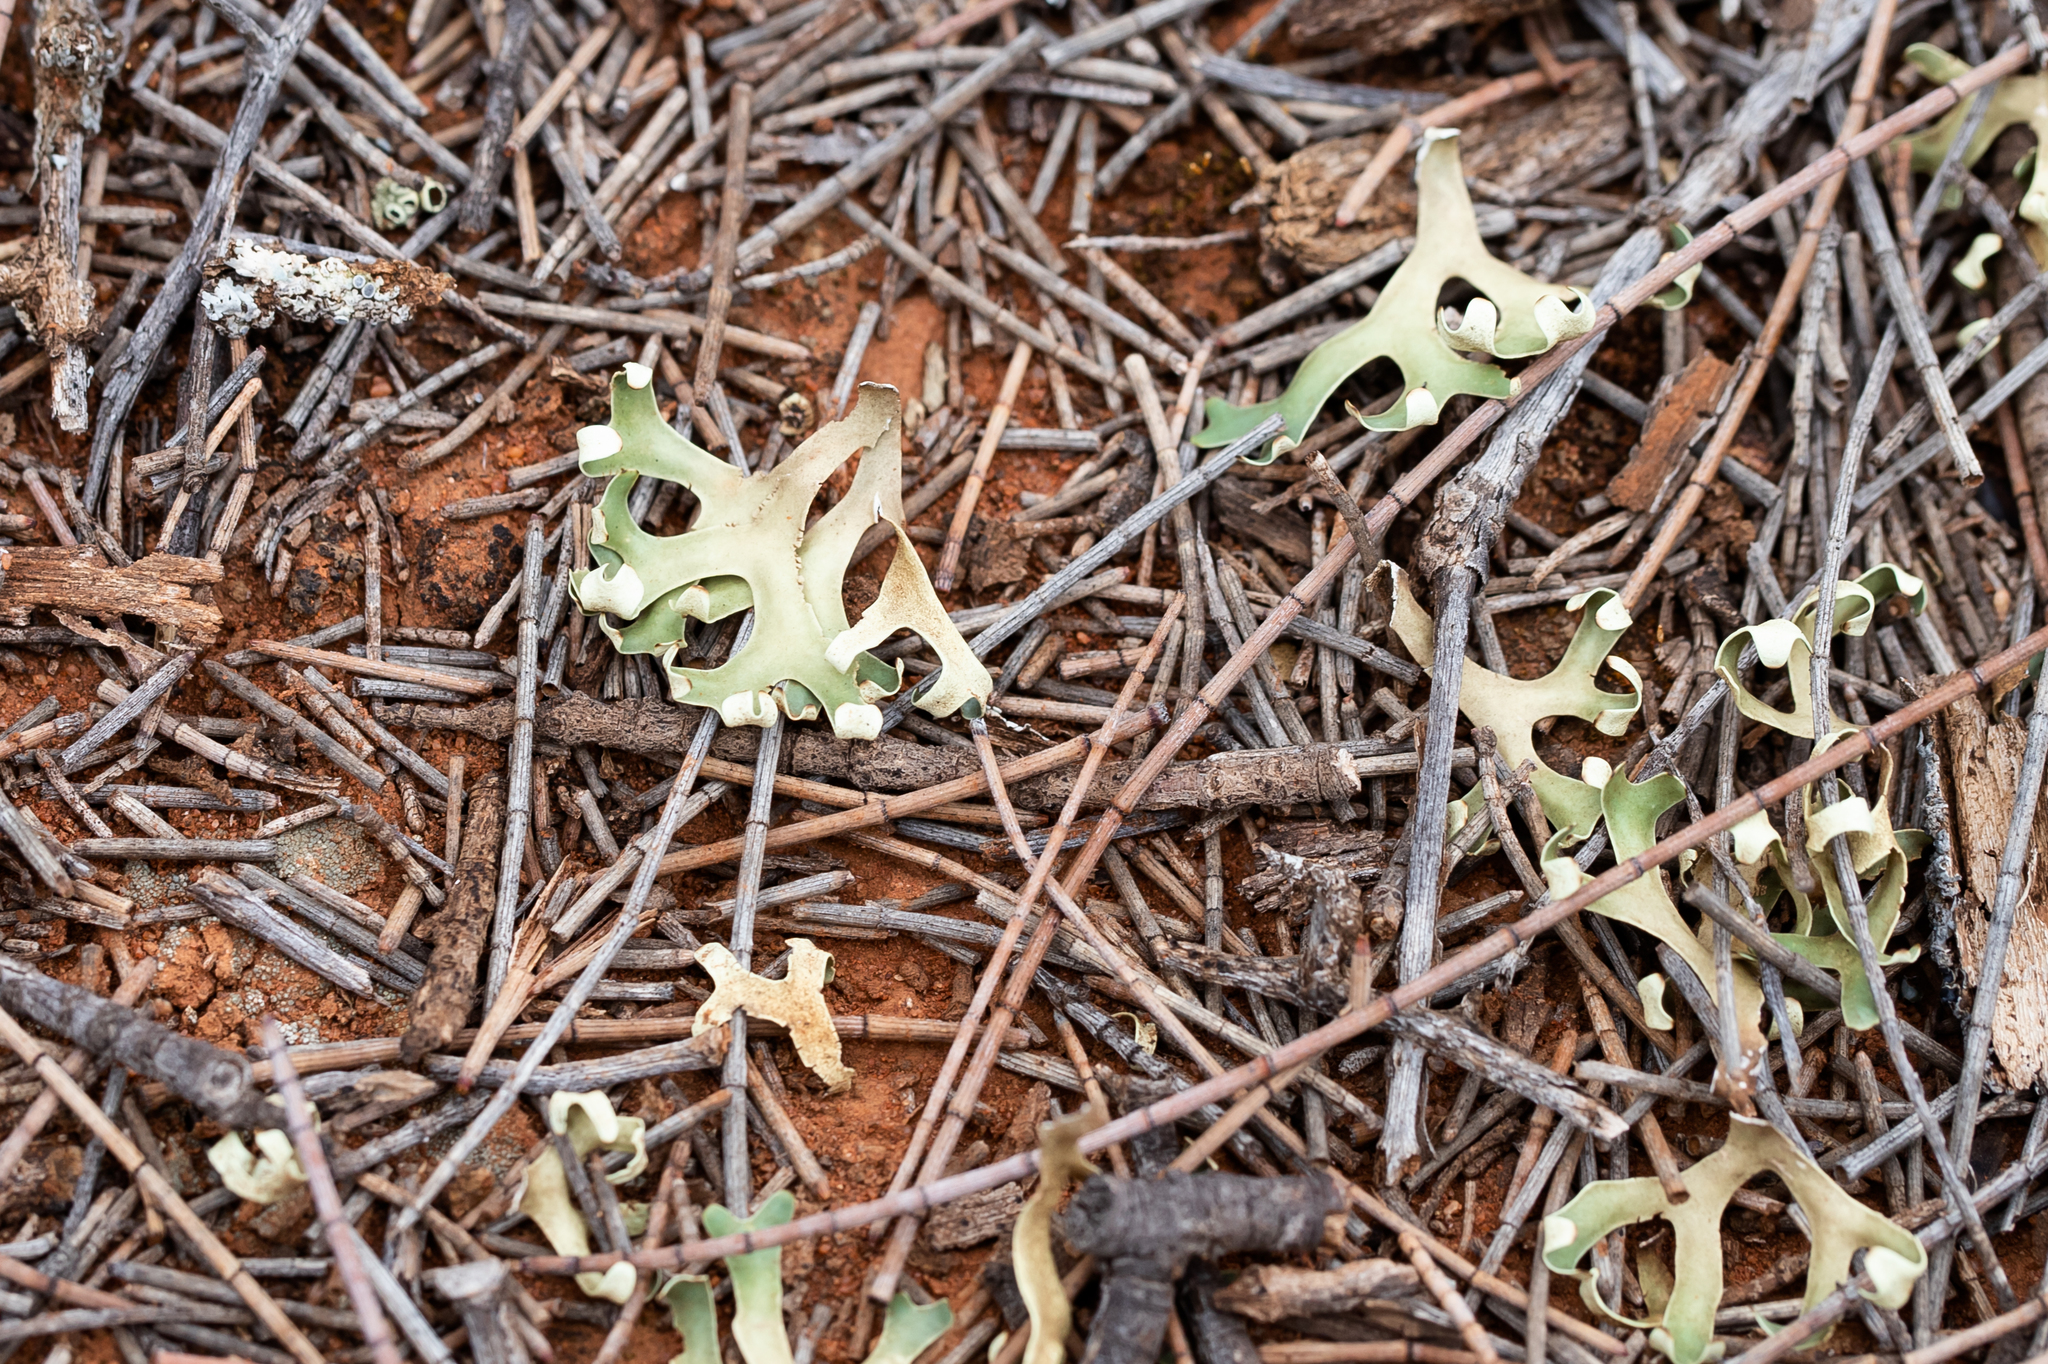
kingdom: Fungi
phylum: Ascomycota
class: Lecanoromycetes
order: Lecanorales
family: Parmeliaceae
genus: Xanthoparmelia
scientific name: Xanthoparmelia semiviridis
